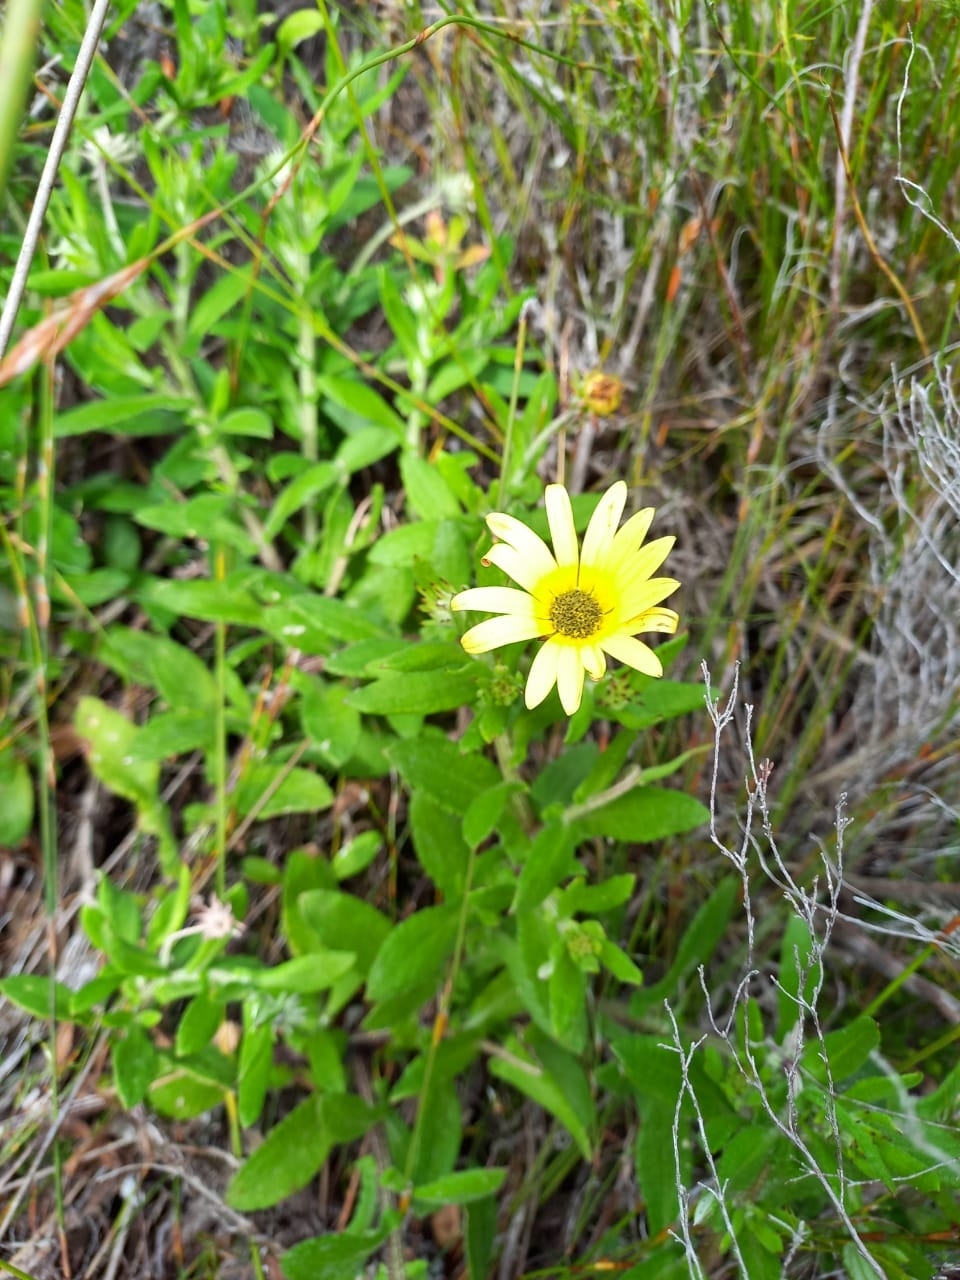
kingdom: Plantae
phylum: Tracheophyta
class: Magnoliopsida
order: Asterales
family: Asteraceae
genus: Arctotis
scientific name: Arctotis scabra
